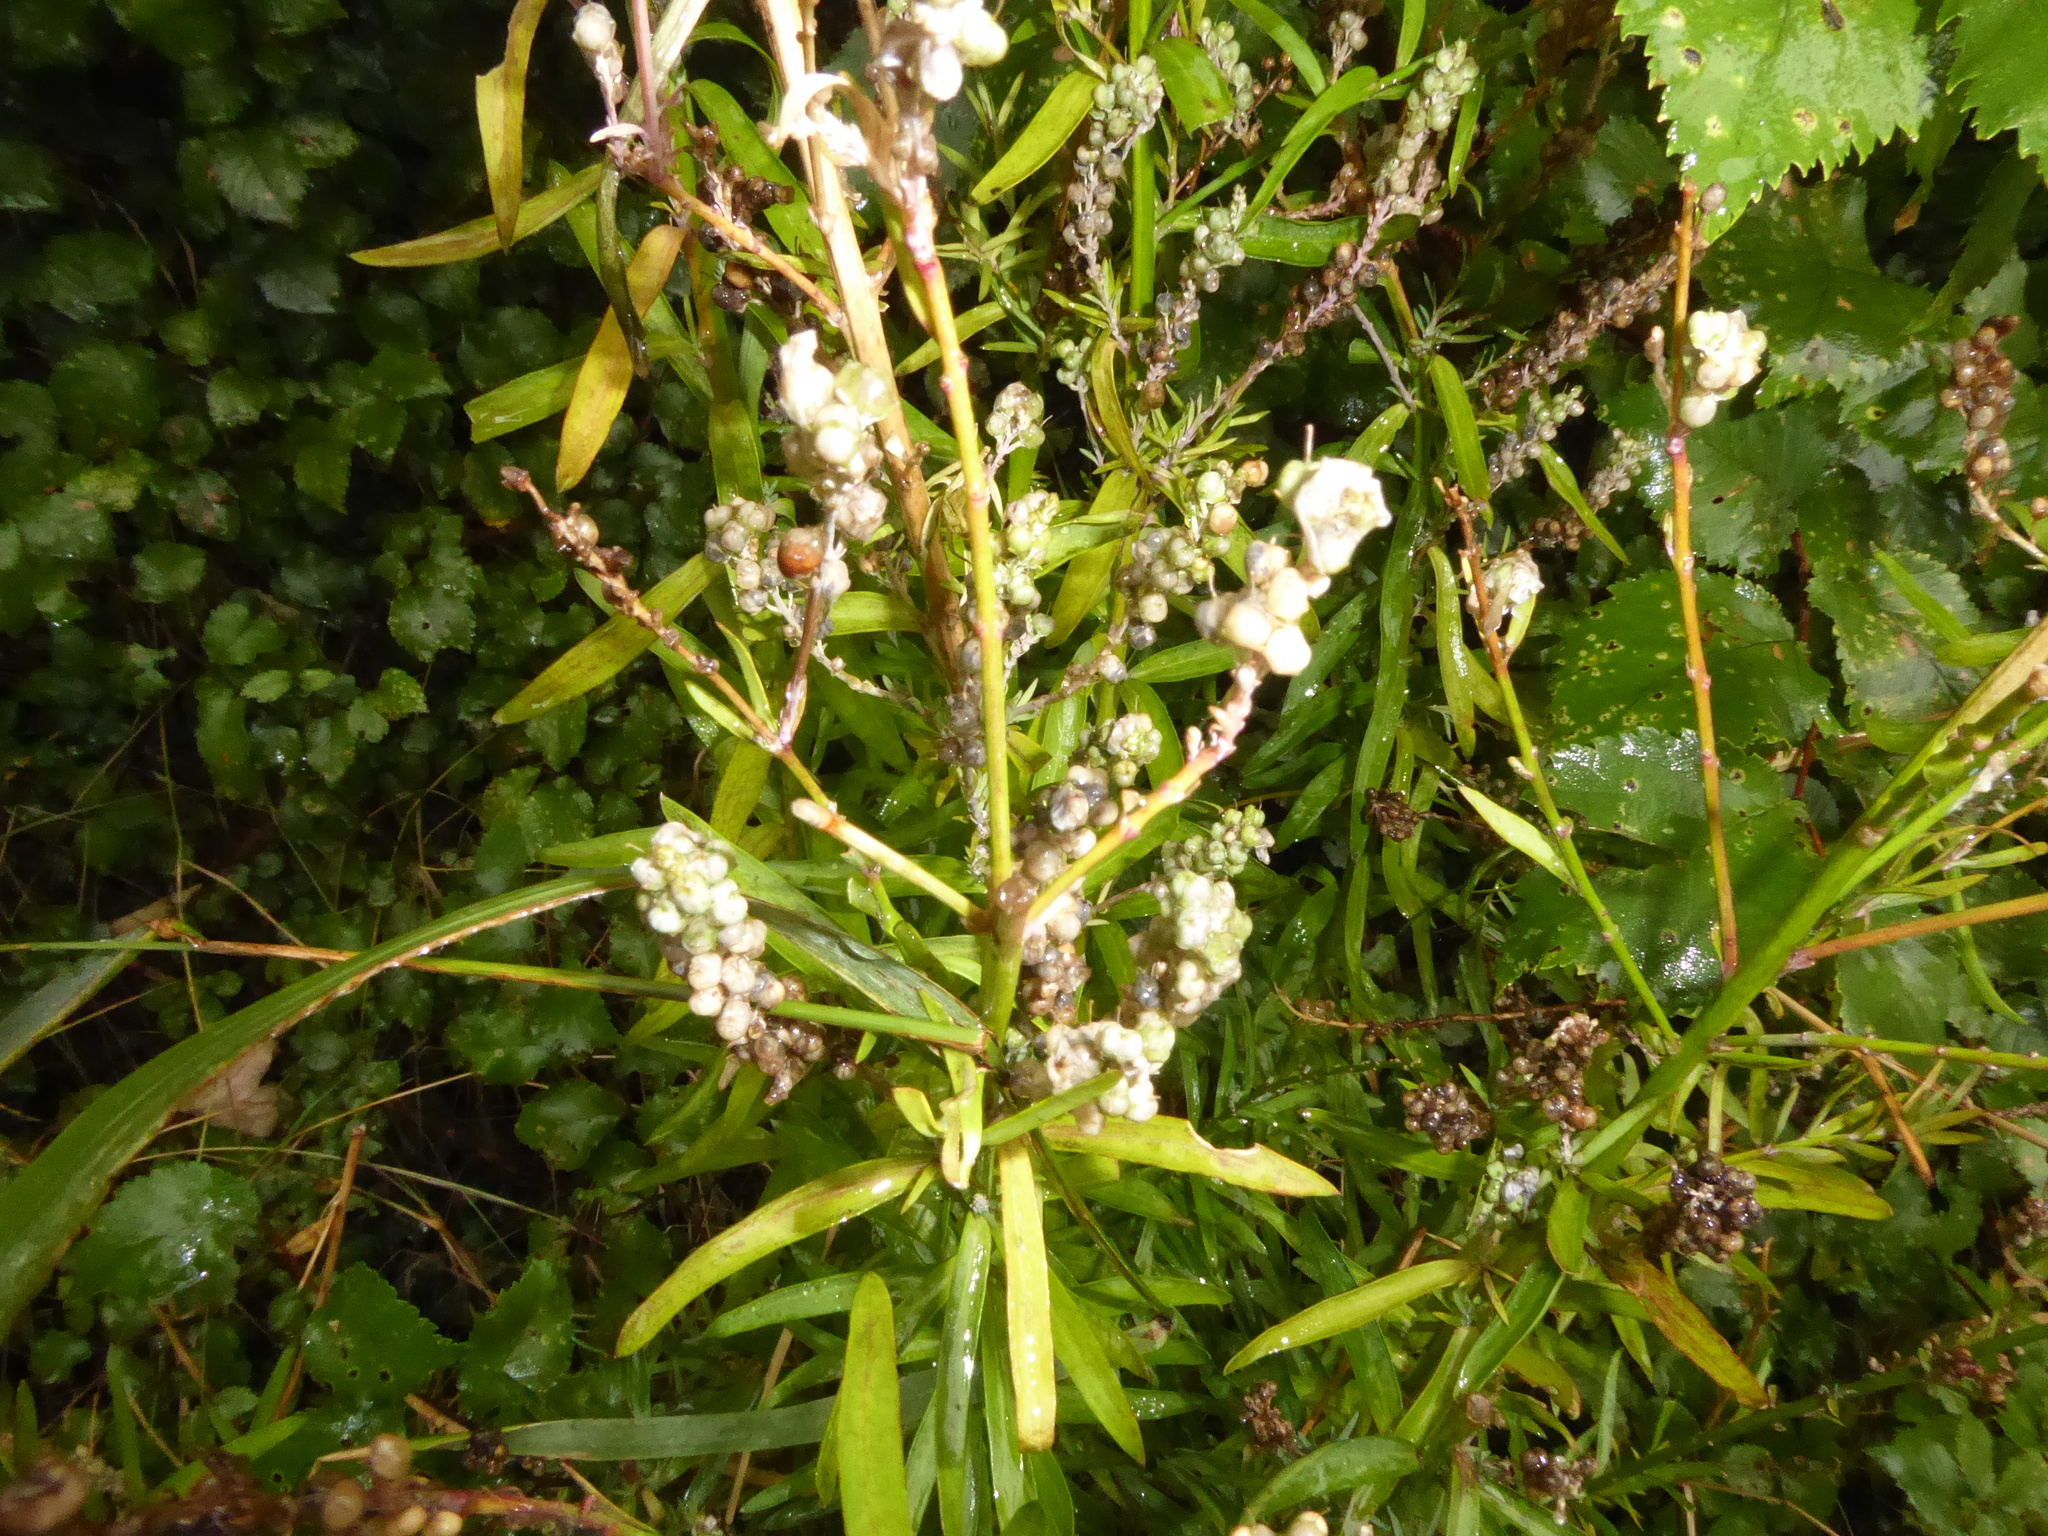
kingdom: Plantae
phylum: Tracheophyta
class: Magnoliopsida
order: Lamiales
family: Plantaginaceae
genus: Linaria
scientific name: Linaria purpurea
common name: Purple toadflax
